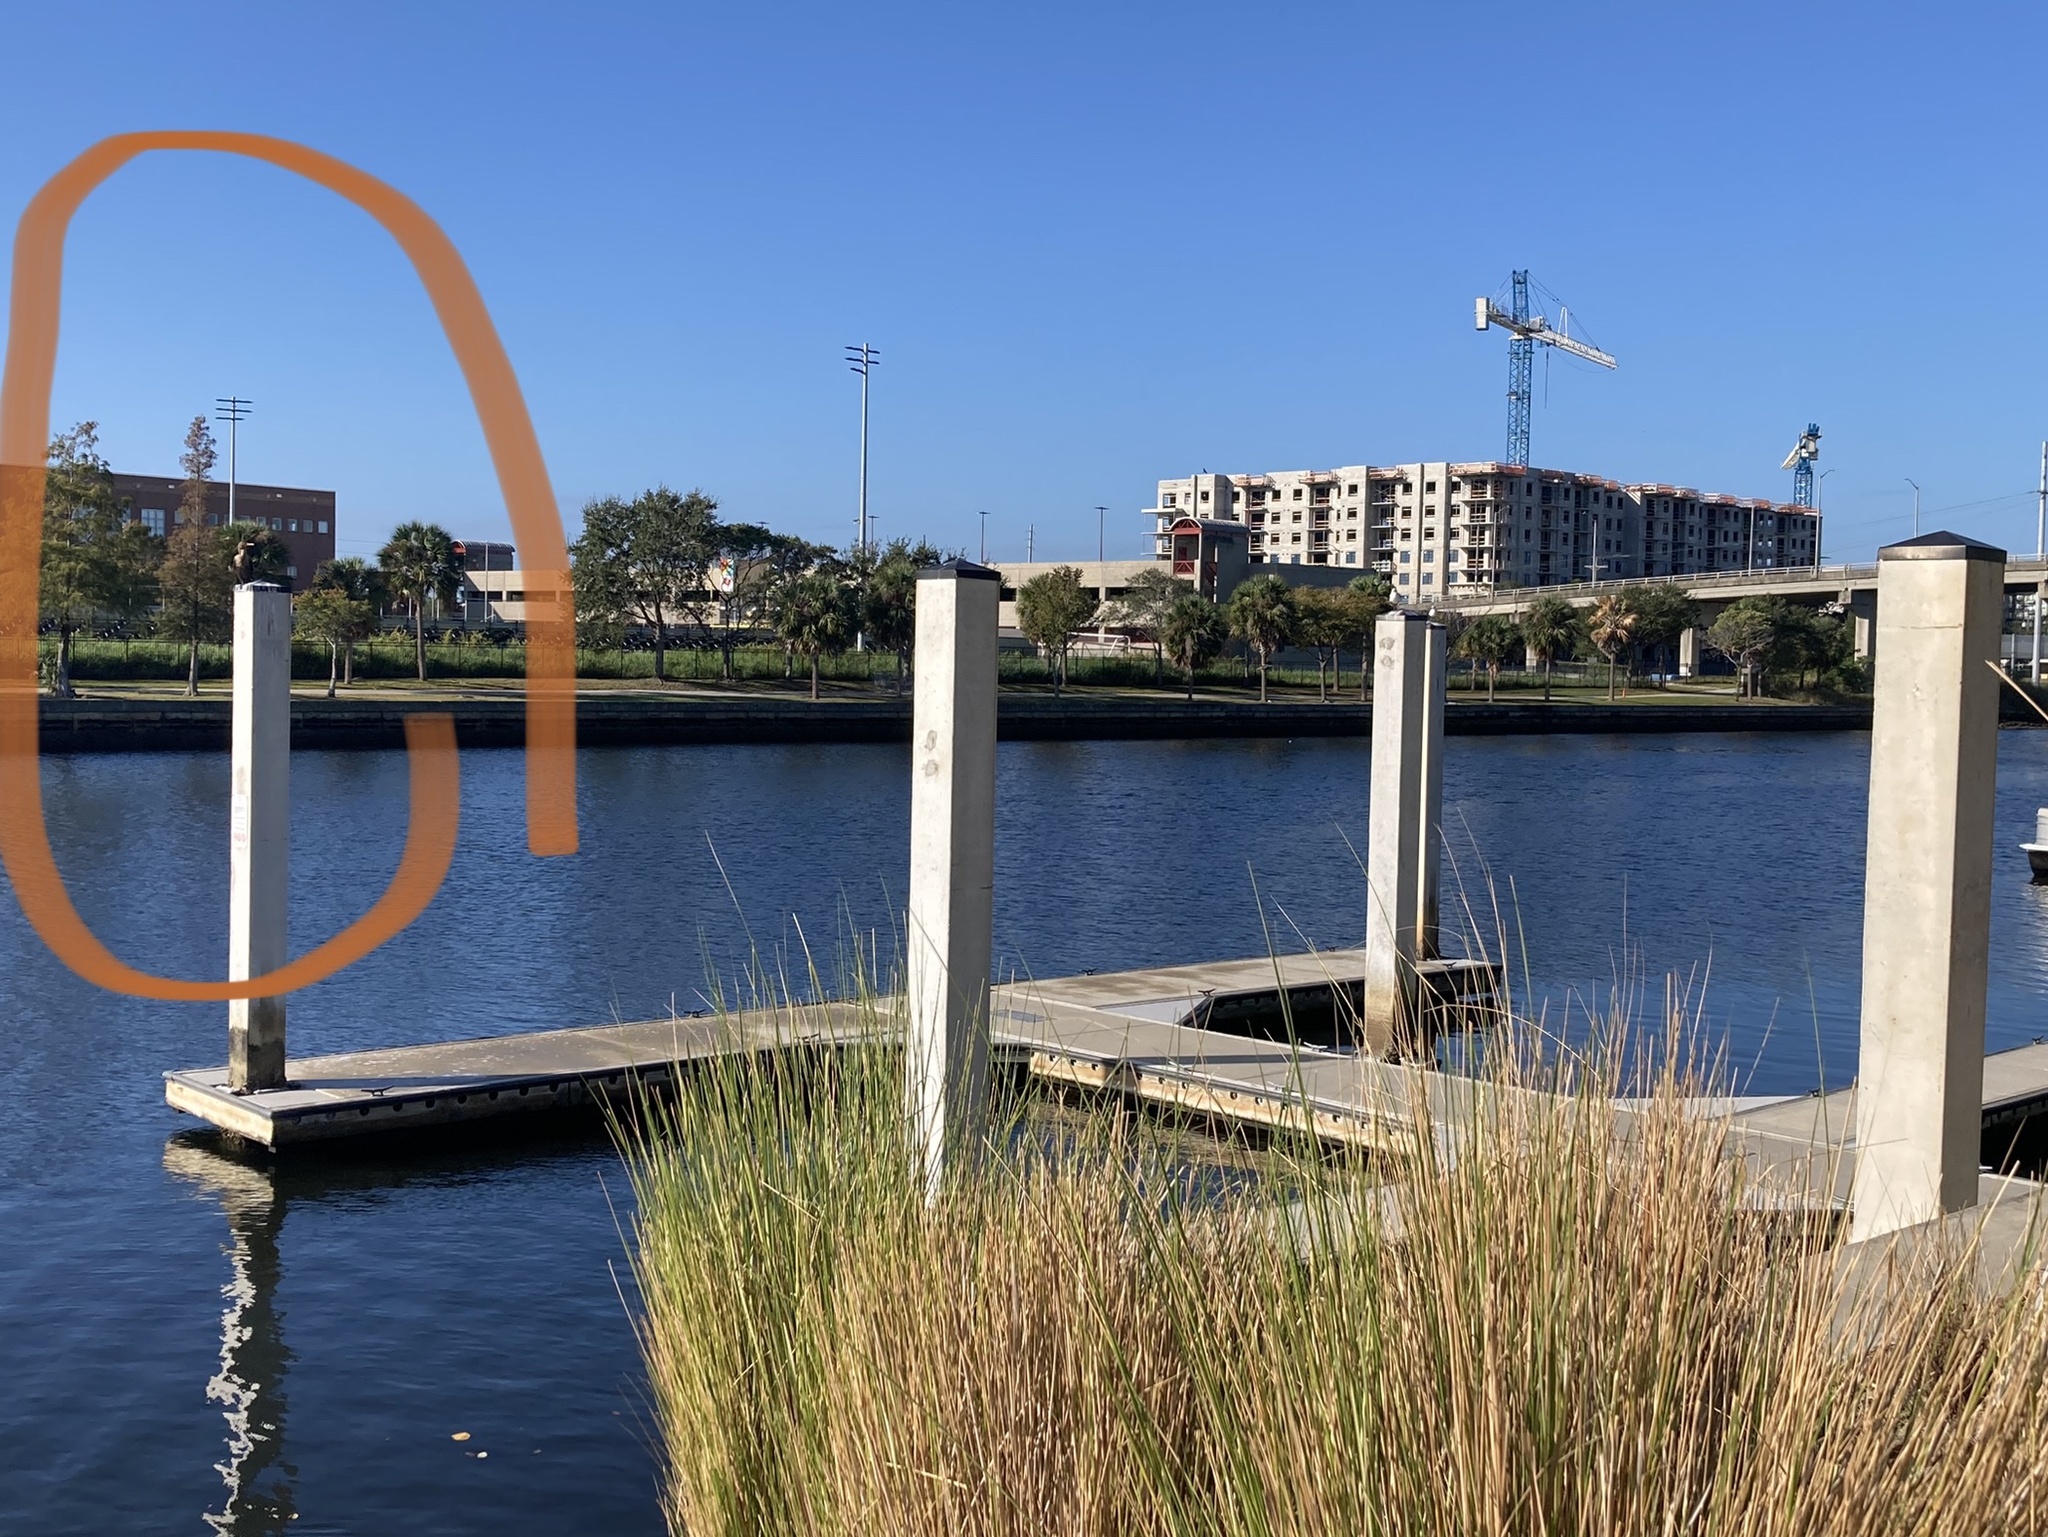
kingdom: Animalia
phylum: Chordata
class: Aves
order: Suliformes
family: Anhingidae
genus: Anhinga
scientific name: Anhinga anhinga
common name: Anhinga
